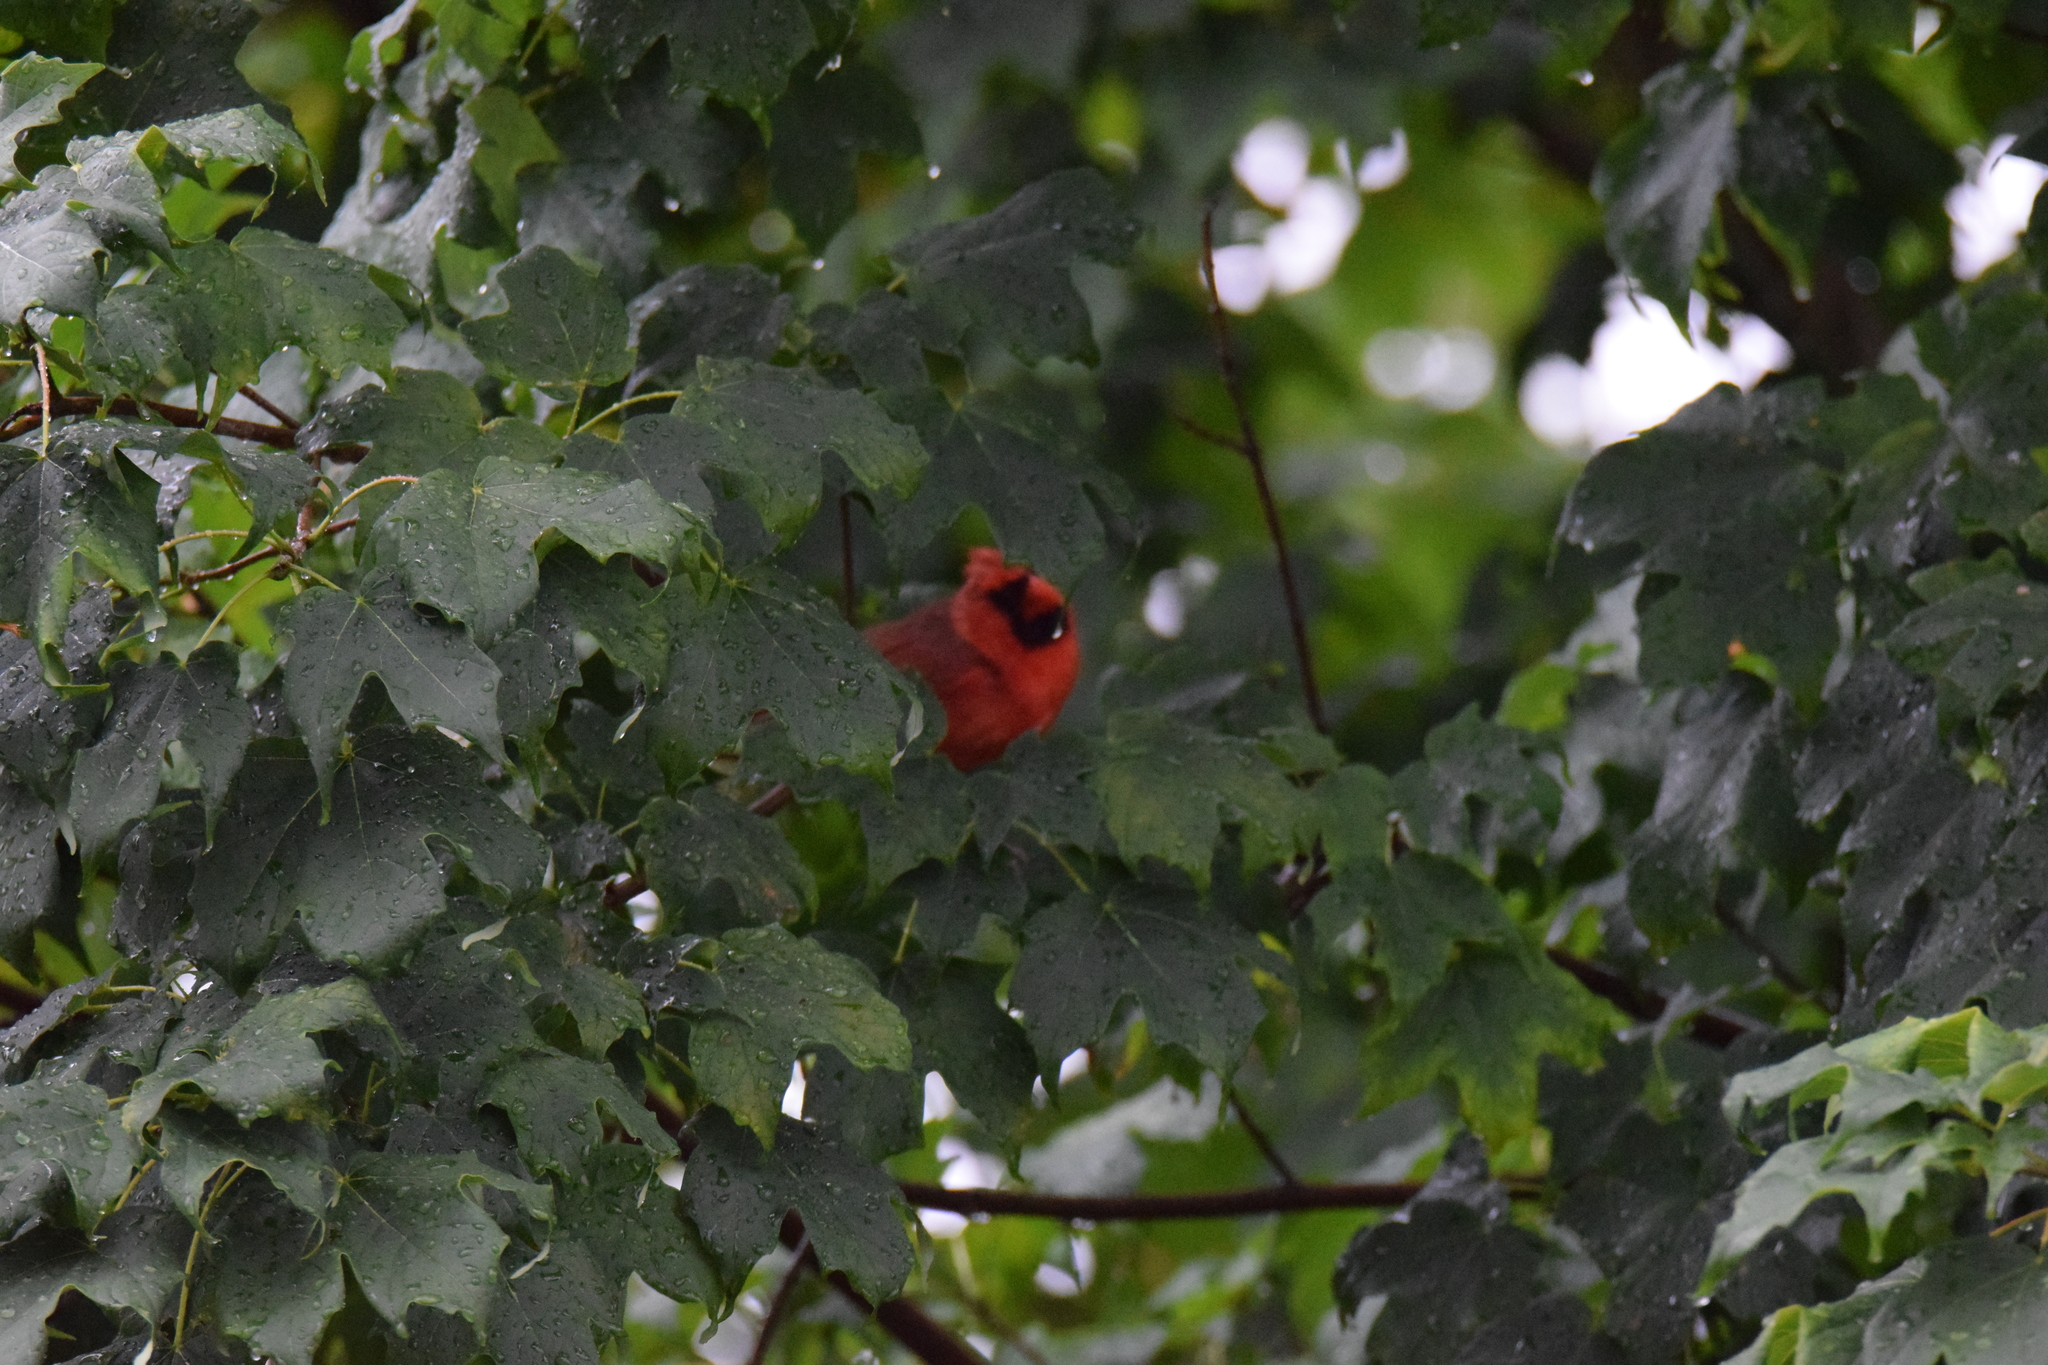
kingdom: Animalia
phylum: Chordata
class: Aves
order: Passeriformes
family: Cardinalidae
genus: Cardinalis
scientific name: Cardinalis cardinalis
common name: Northern cardinal
